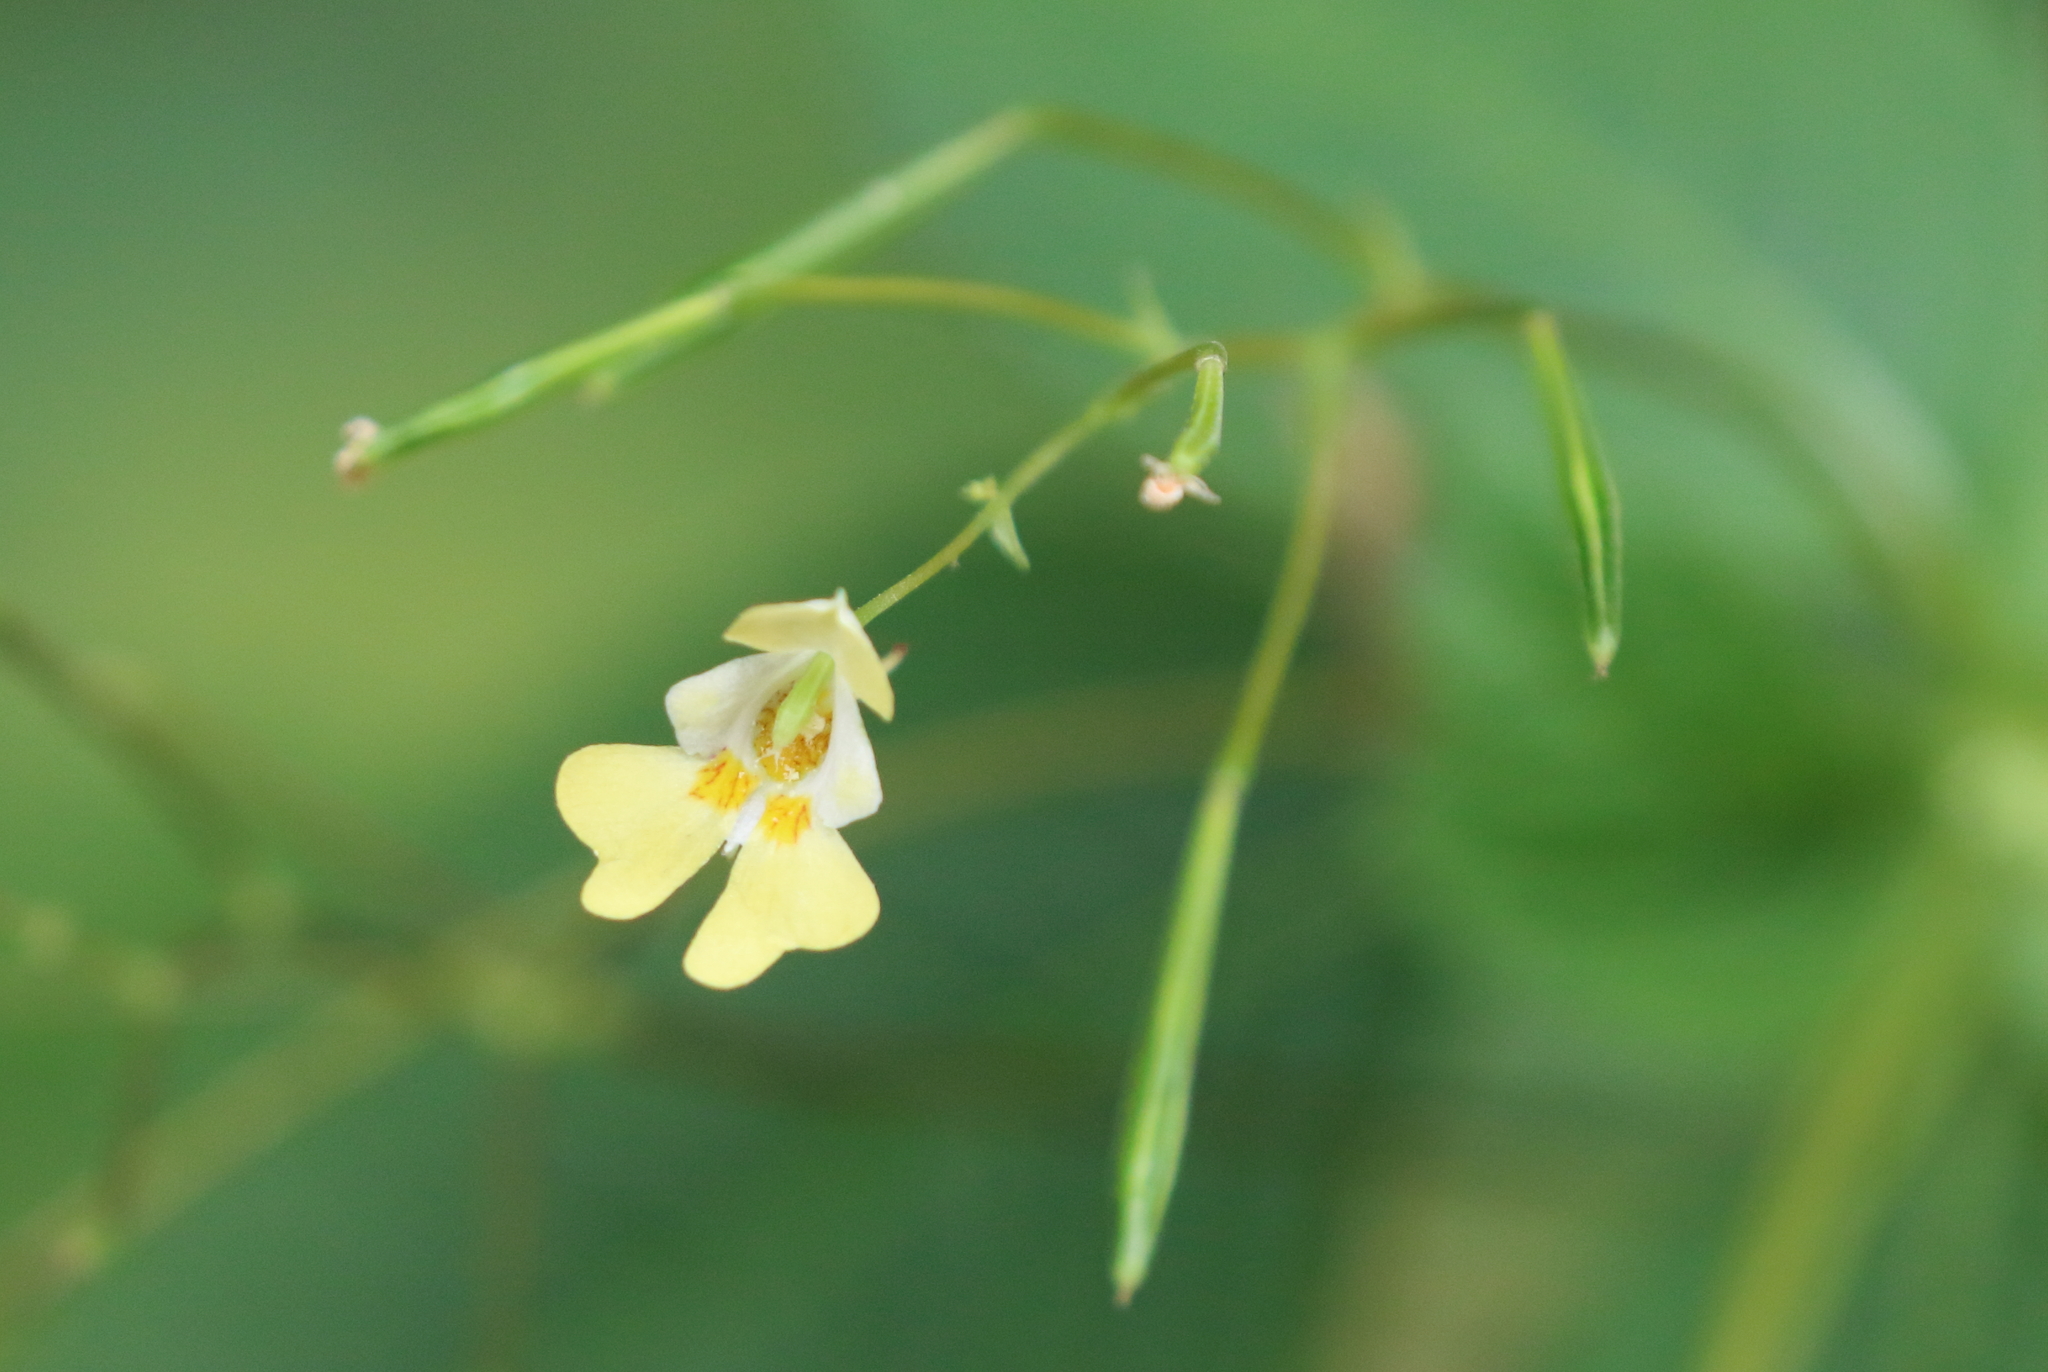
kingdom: Plantae
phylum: Tracheophyta
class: Magnoliopsida
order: Ericales
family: Balsaminaceae
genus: Impatiens
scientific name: Impatiens parviflora
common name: Small balsam
